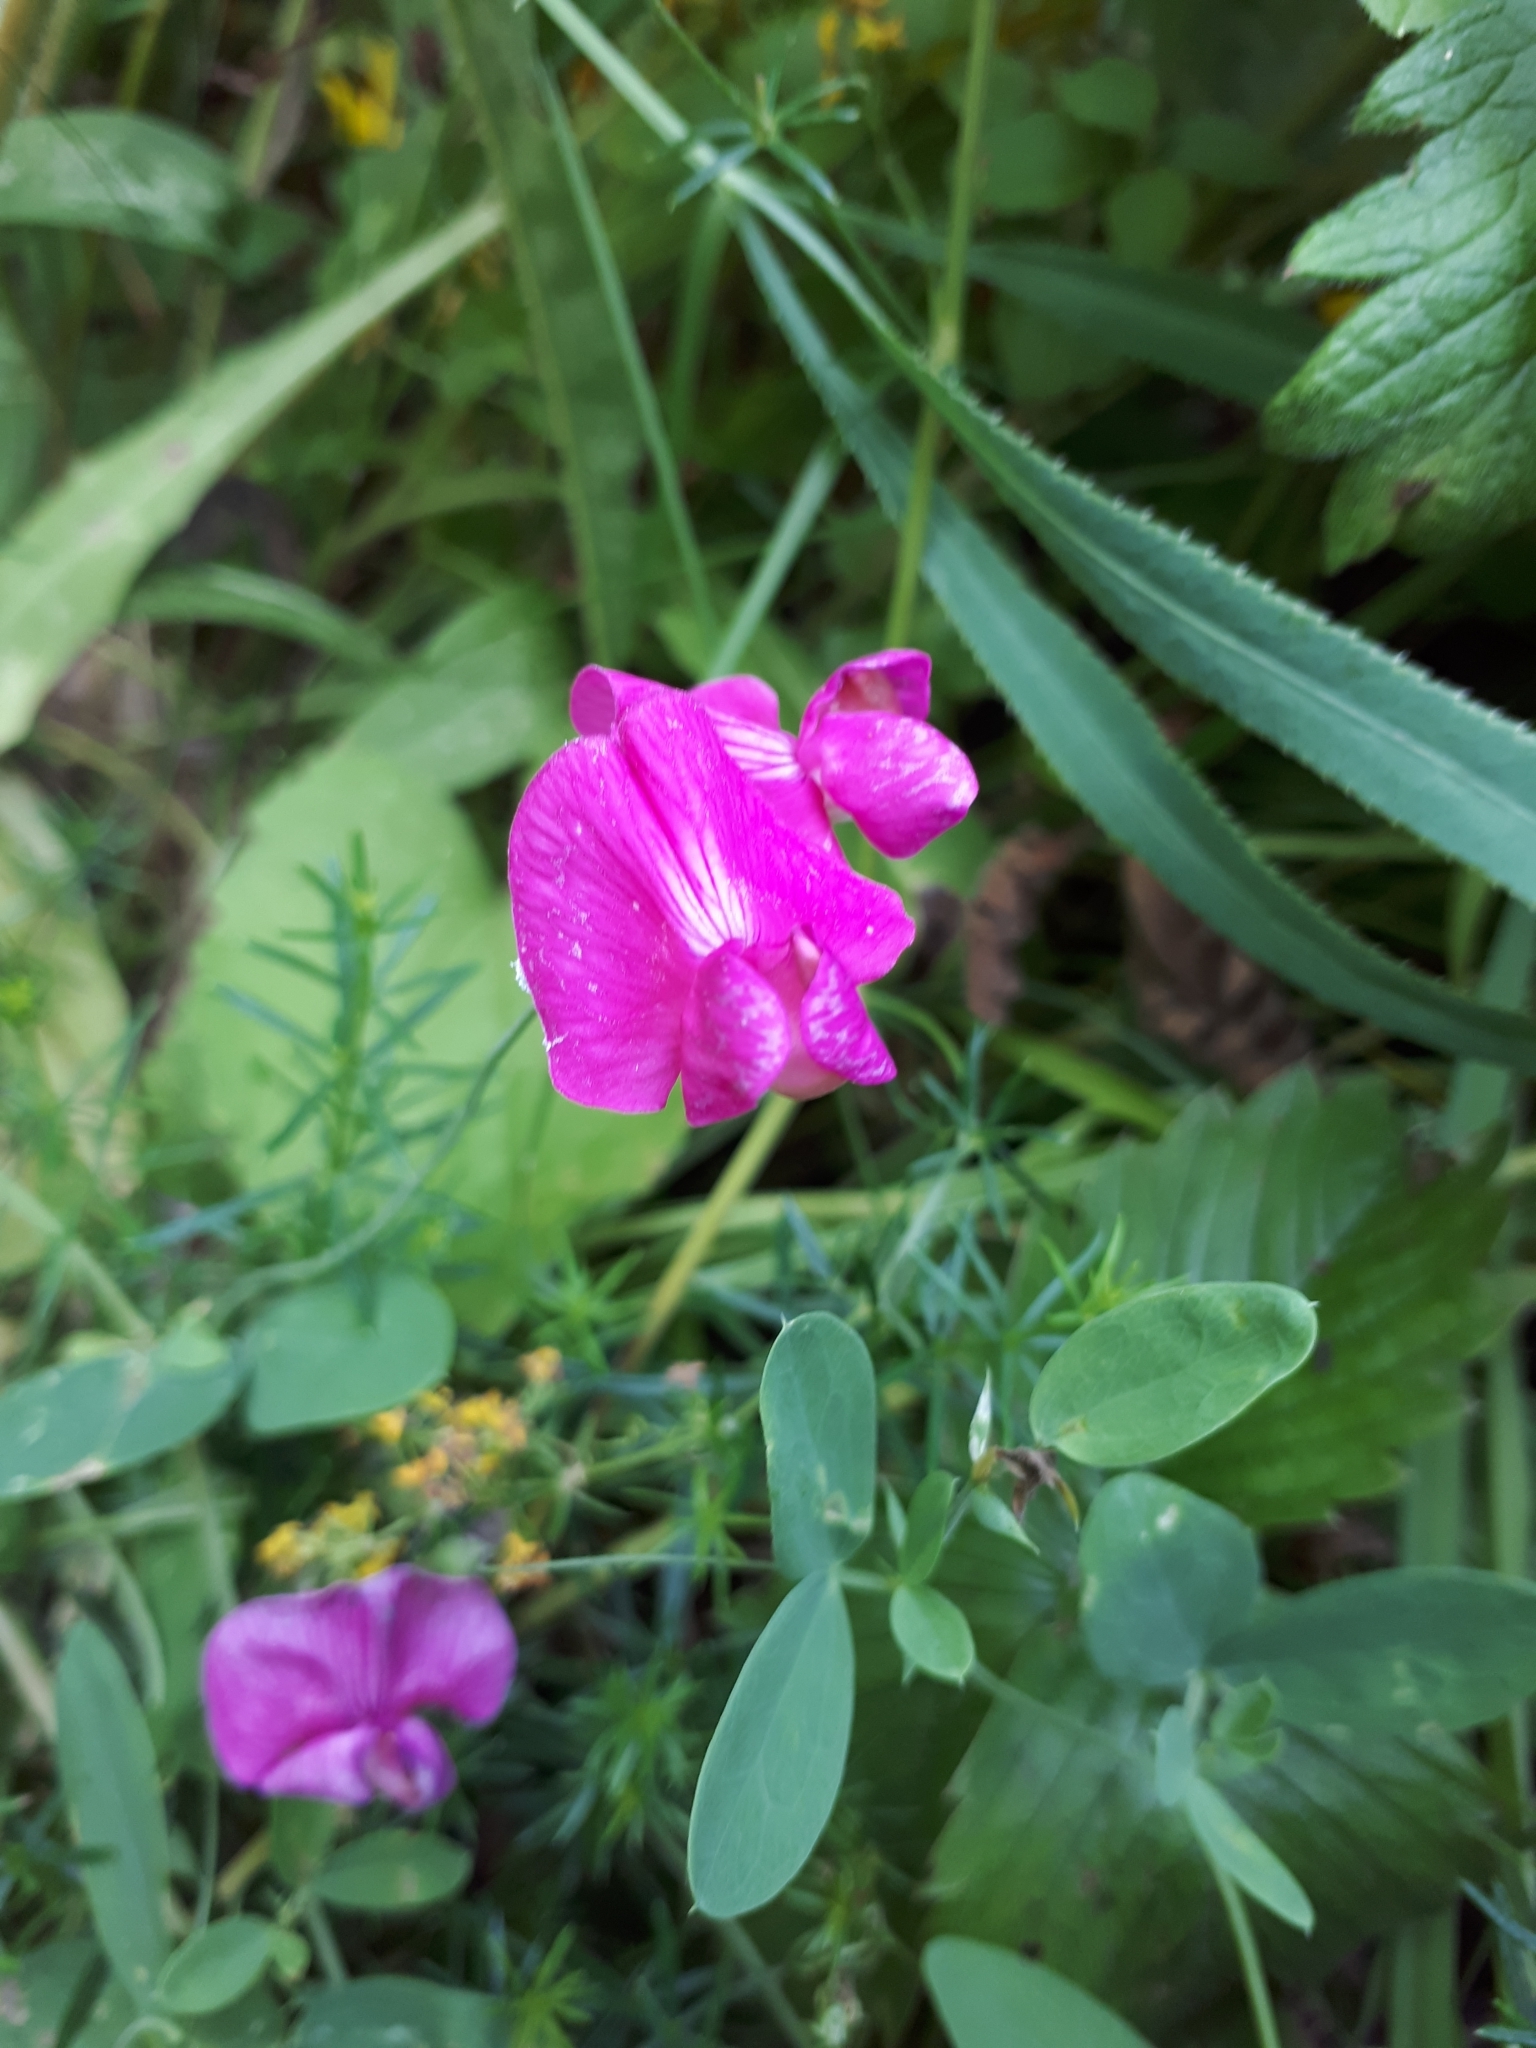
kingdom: Plantae
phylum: Tracheophyta
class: Magnoliopsida
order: Fabales
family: Fabaceae
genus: Lathyrus
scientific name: Lathyrus tuberosus
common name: Tuberous pea
